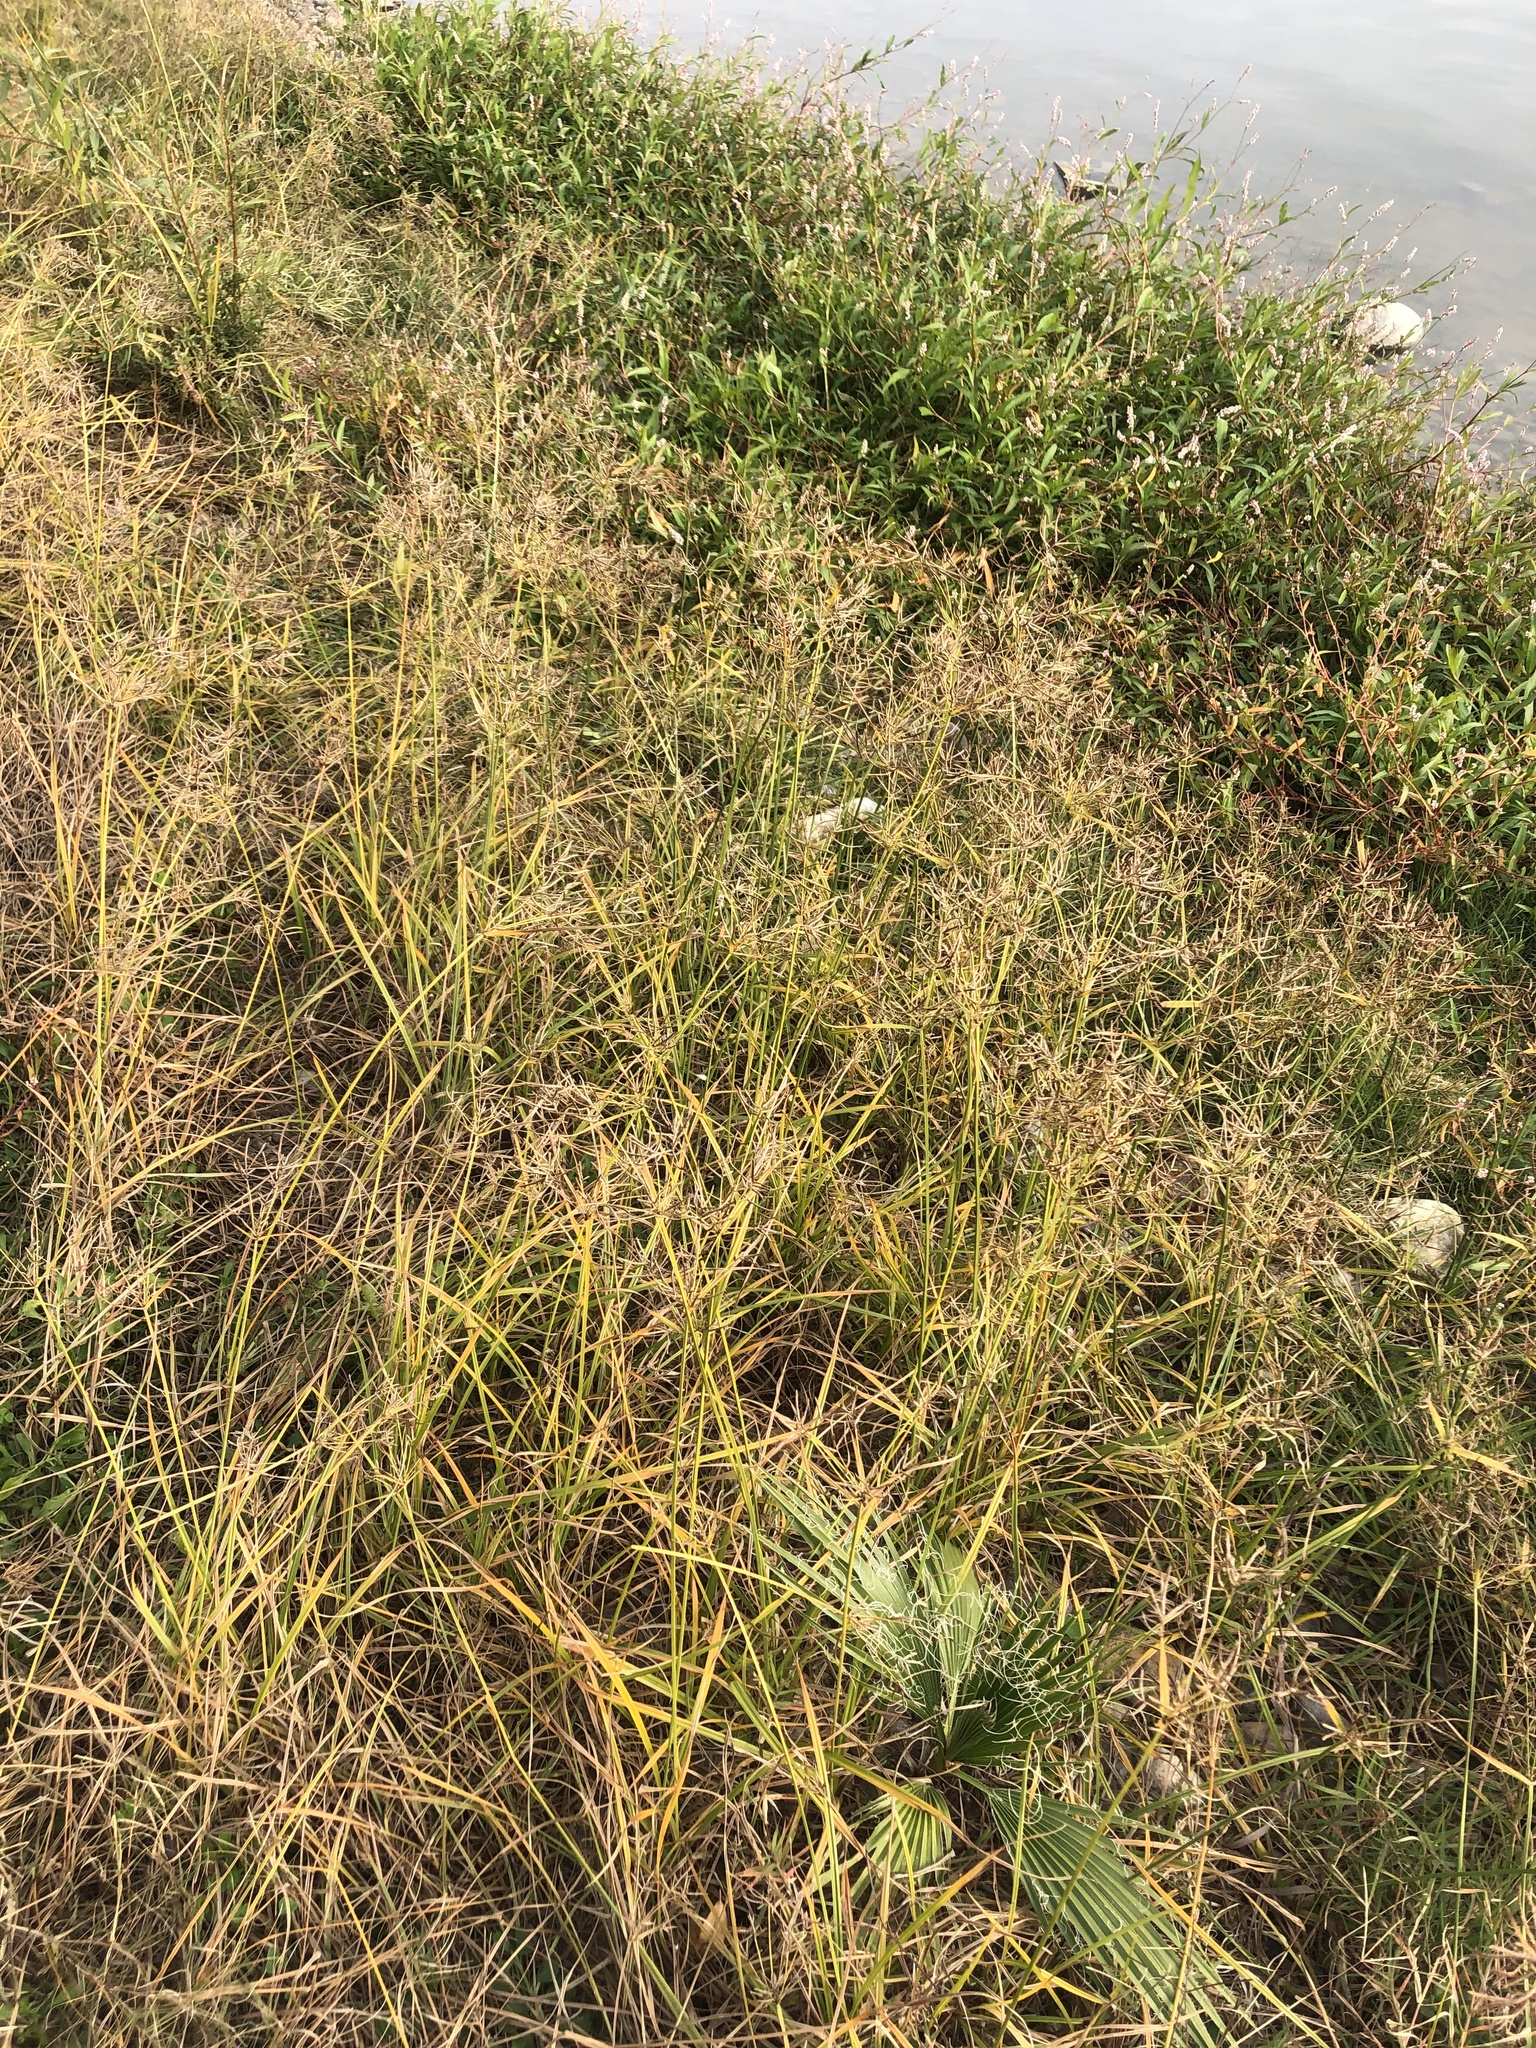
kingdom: Plantae
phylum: Tracheophyta
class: Liliopsida
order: Poales
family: Cyperaceae
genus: Cyperus
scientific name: Cyperus rotundus
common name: Nutgrass
